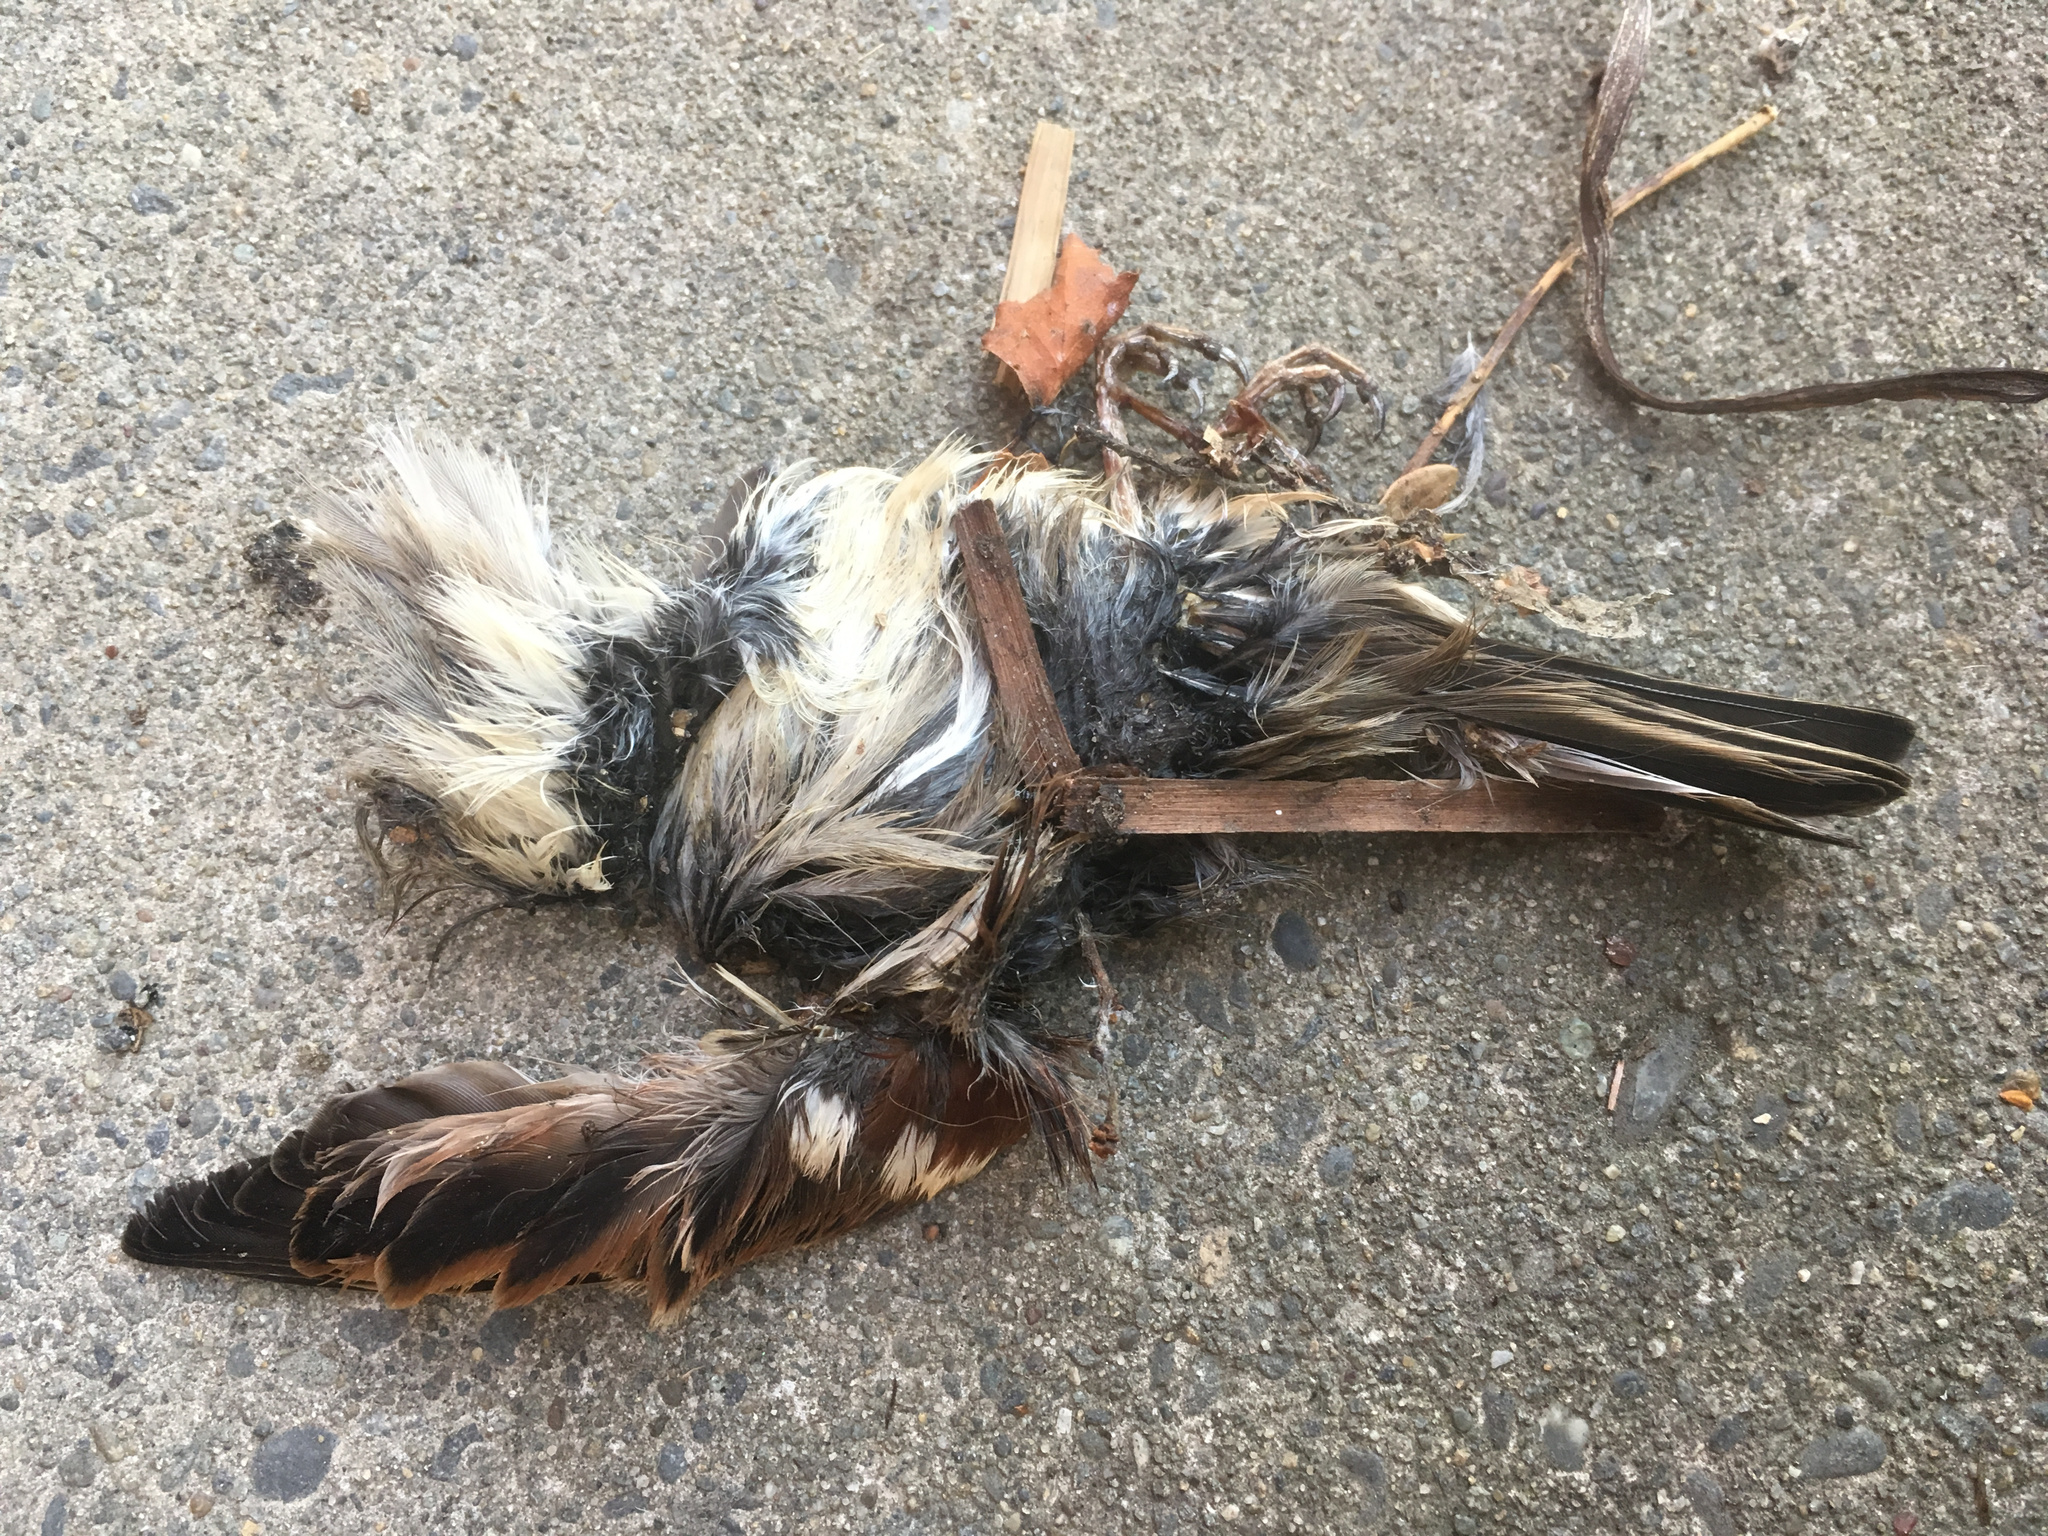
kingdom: Animalia
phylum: Chordata
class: Aves
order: Passeriformes
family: Passeridae
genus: Passer
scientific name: Passer domesticus
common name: House sparrow
